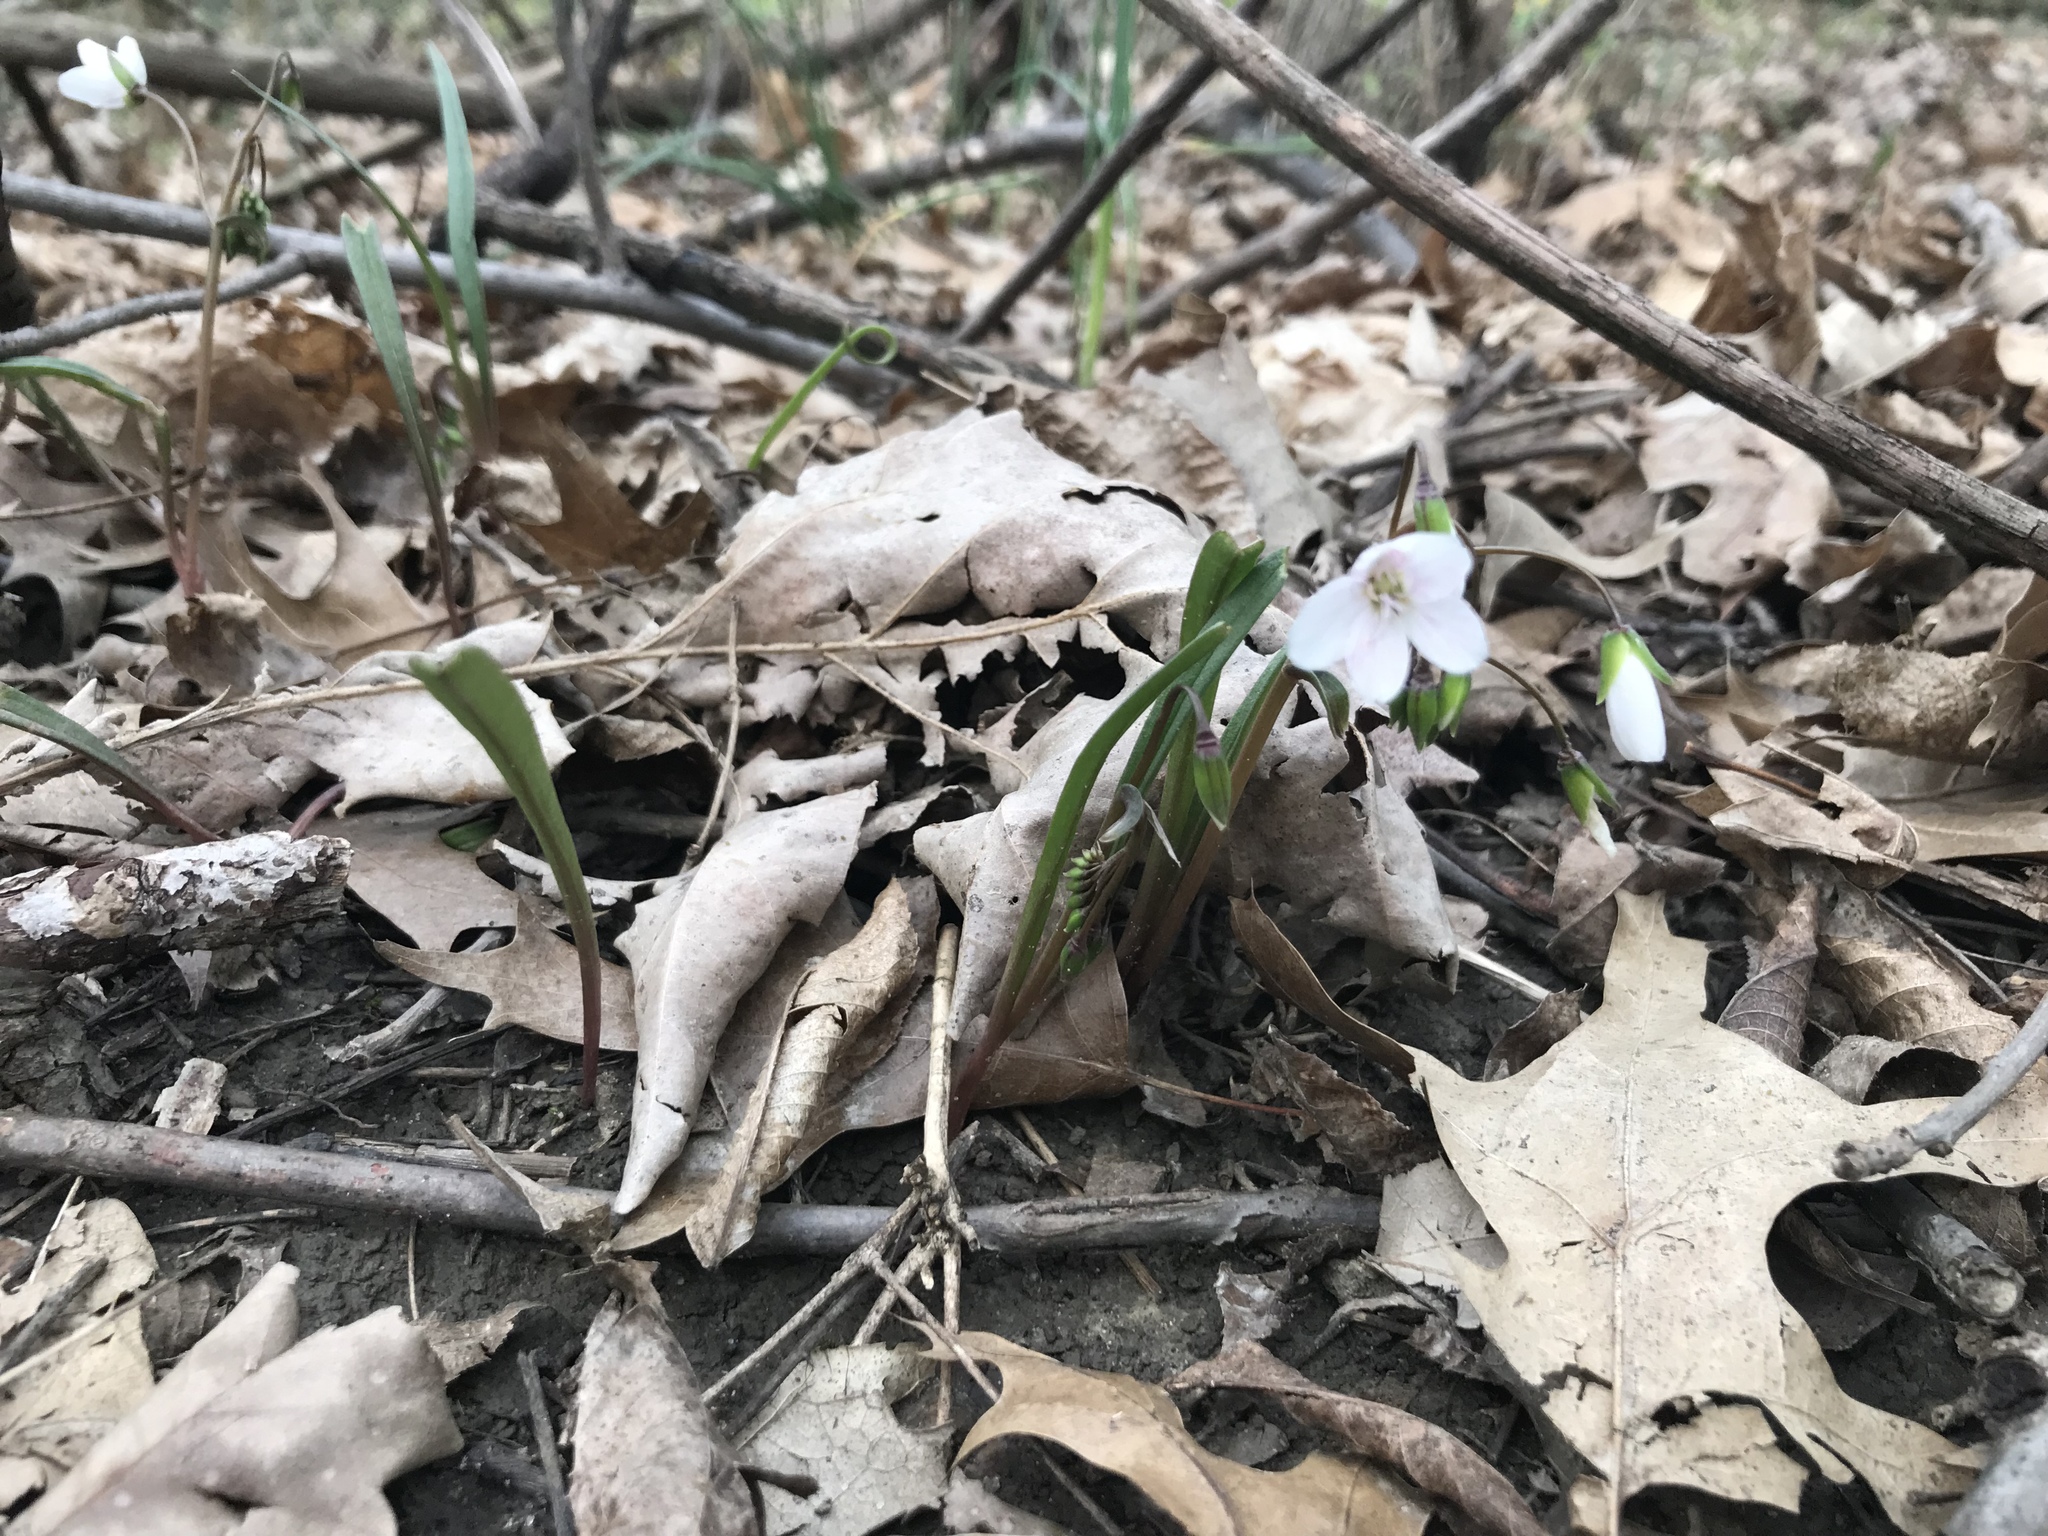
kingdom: Plantae
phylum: Tracheophyta
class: Magnoliopsida
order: Caryophyllales
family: Montiaceae
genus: Claytonia
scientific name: Claytonia virginica
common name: Virginia springbeauty
